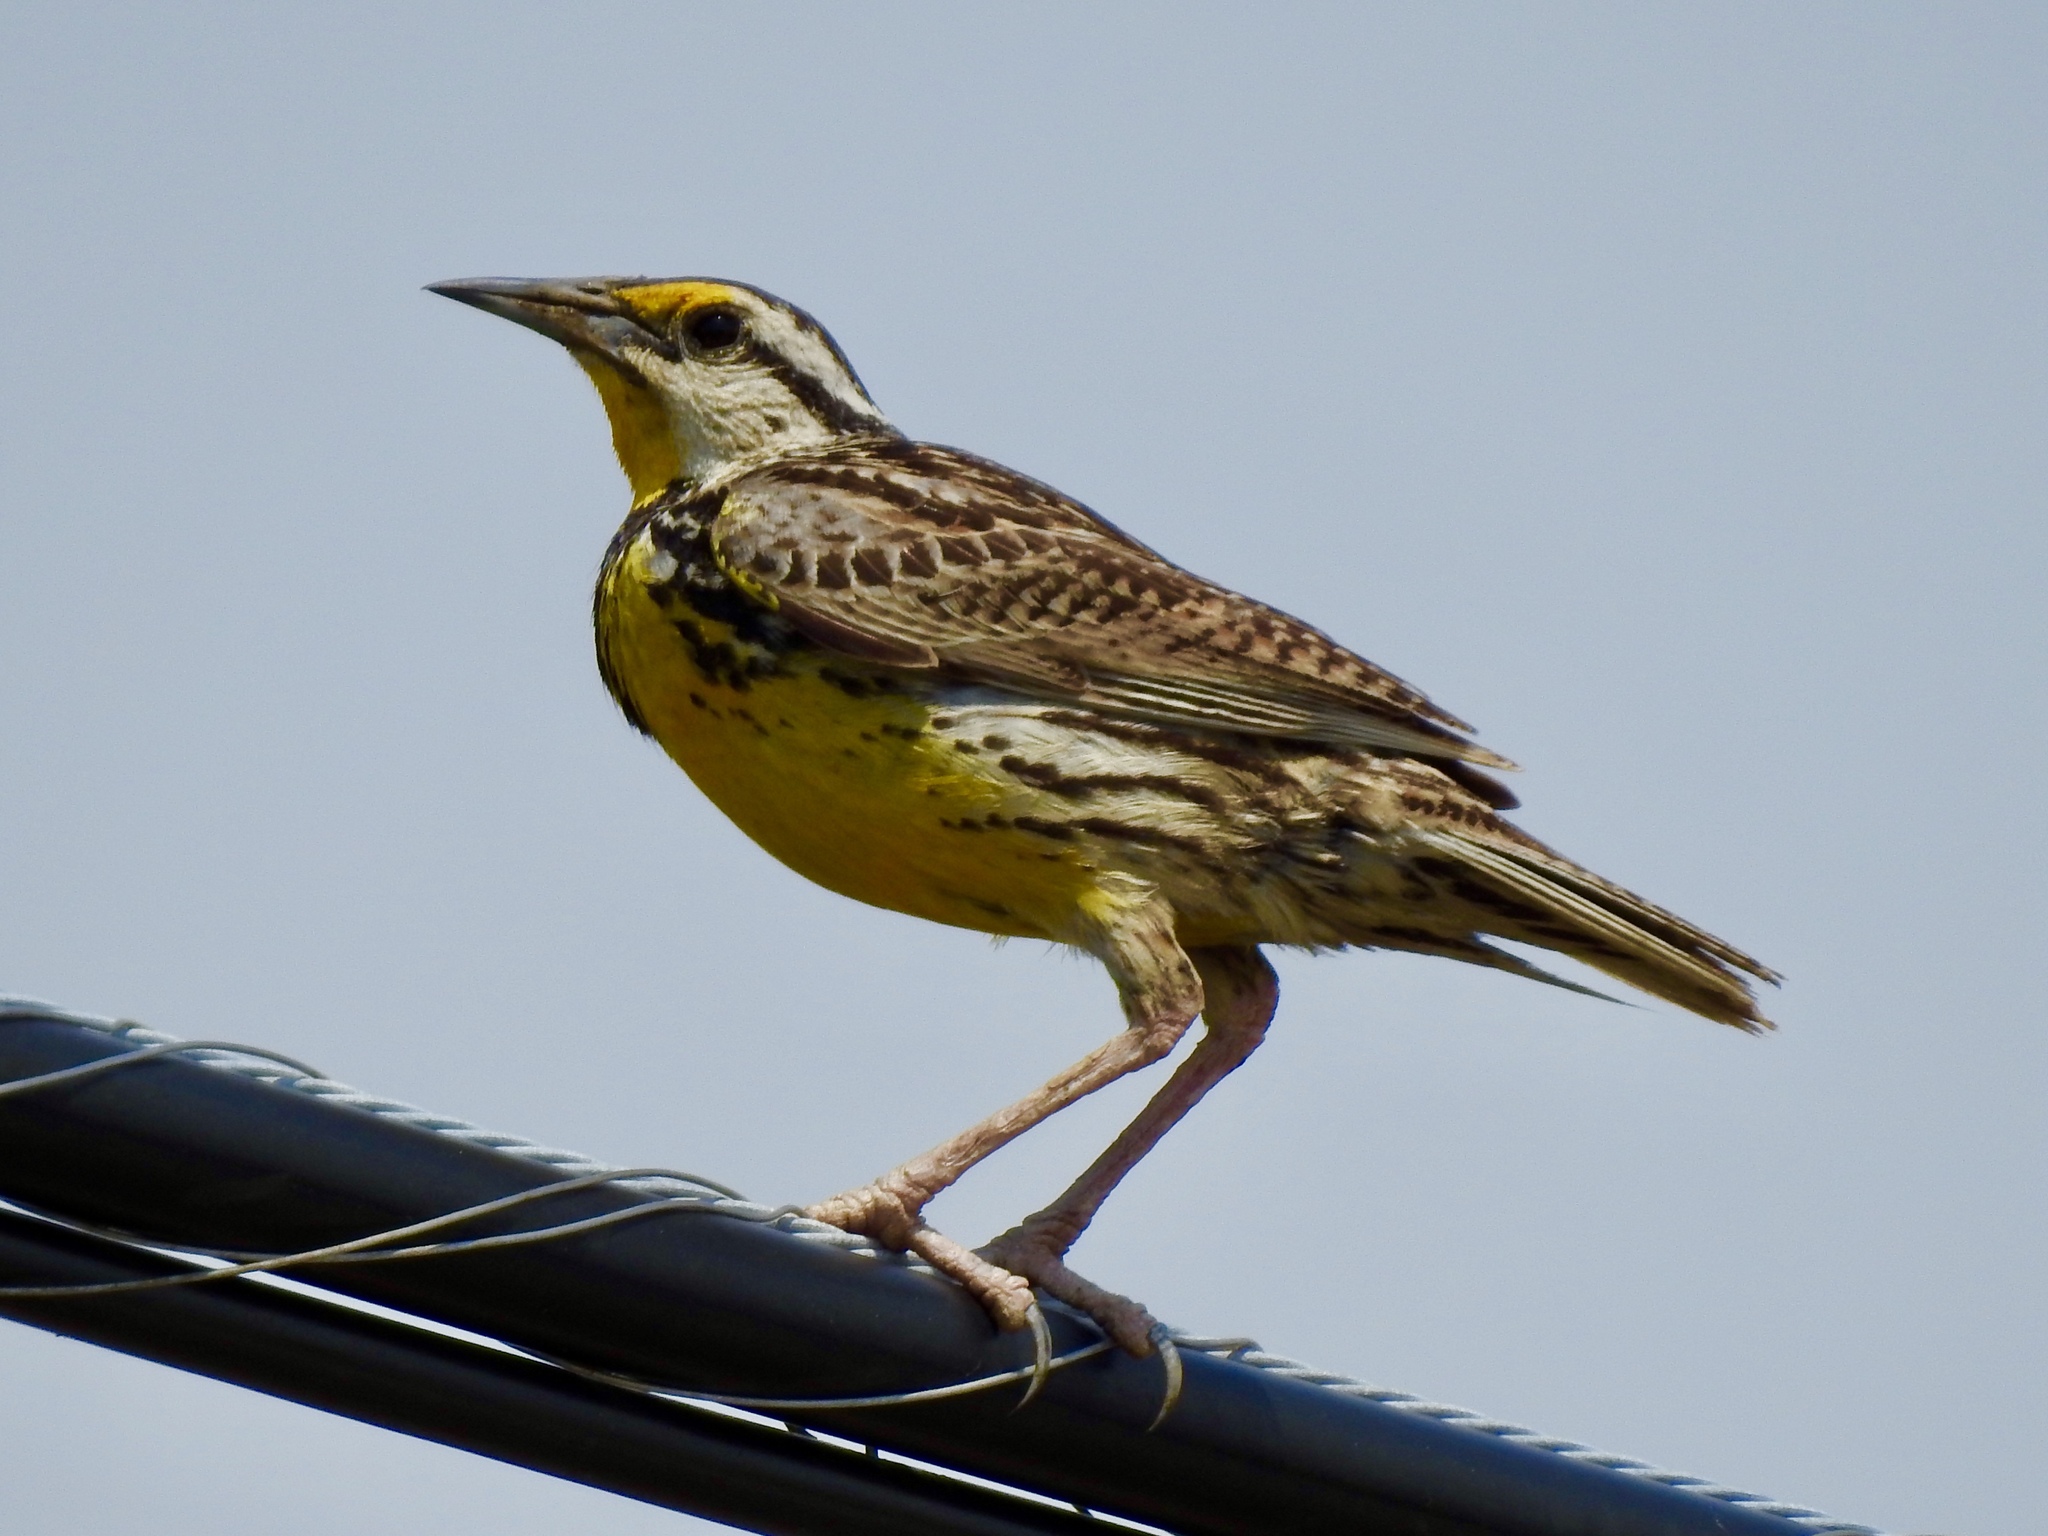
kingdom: Animalia
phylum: Chordata
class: Aves
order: Passeriformes
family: Icteridae
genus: Sturnella
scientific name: Sturnella magna
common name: Eastern meadowlark
